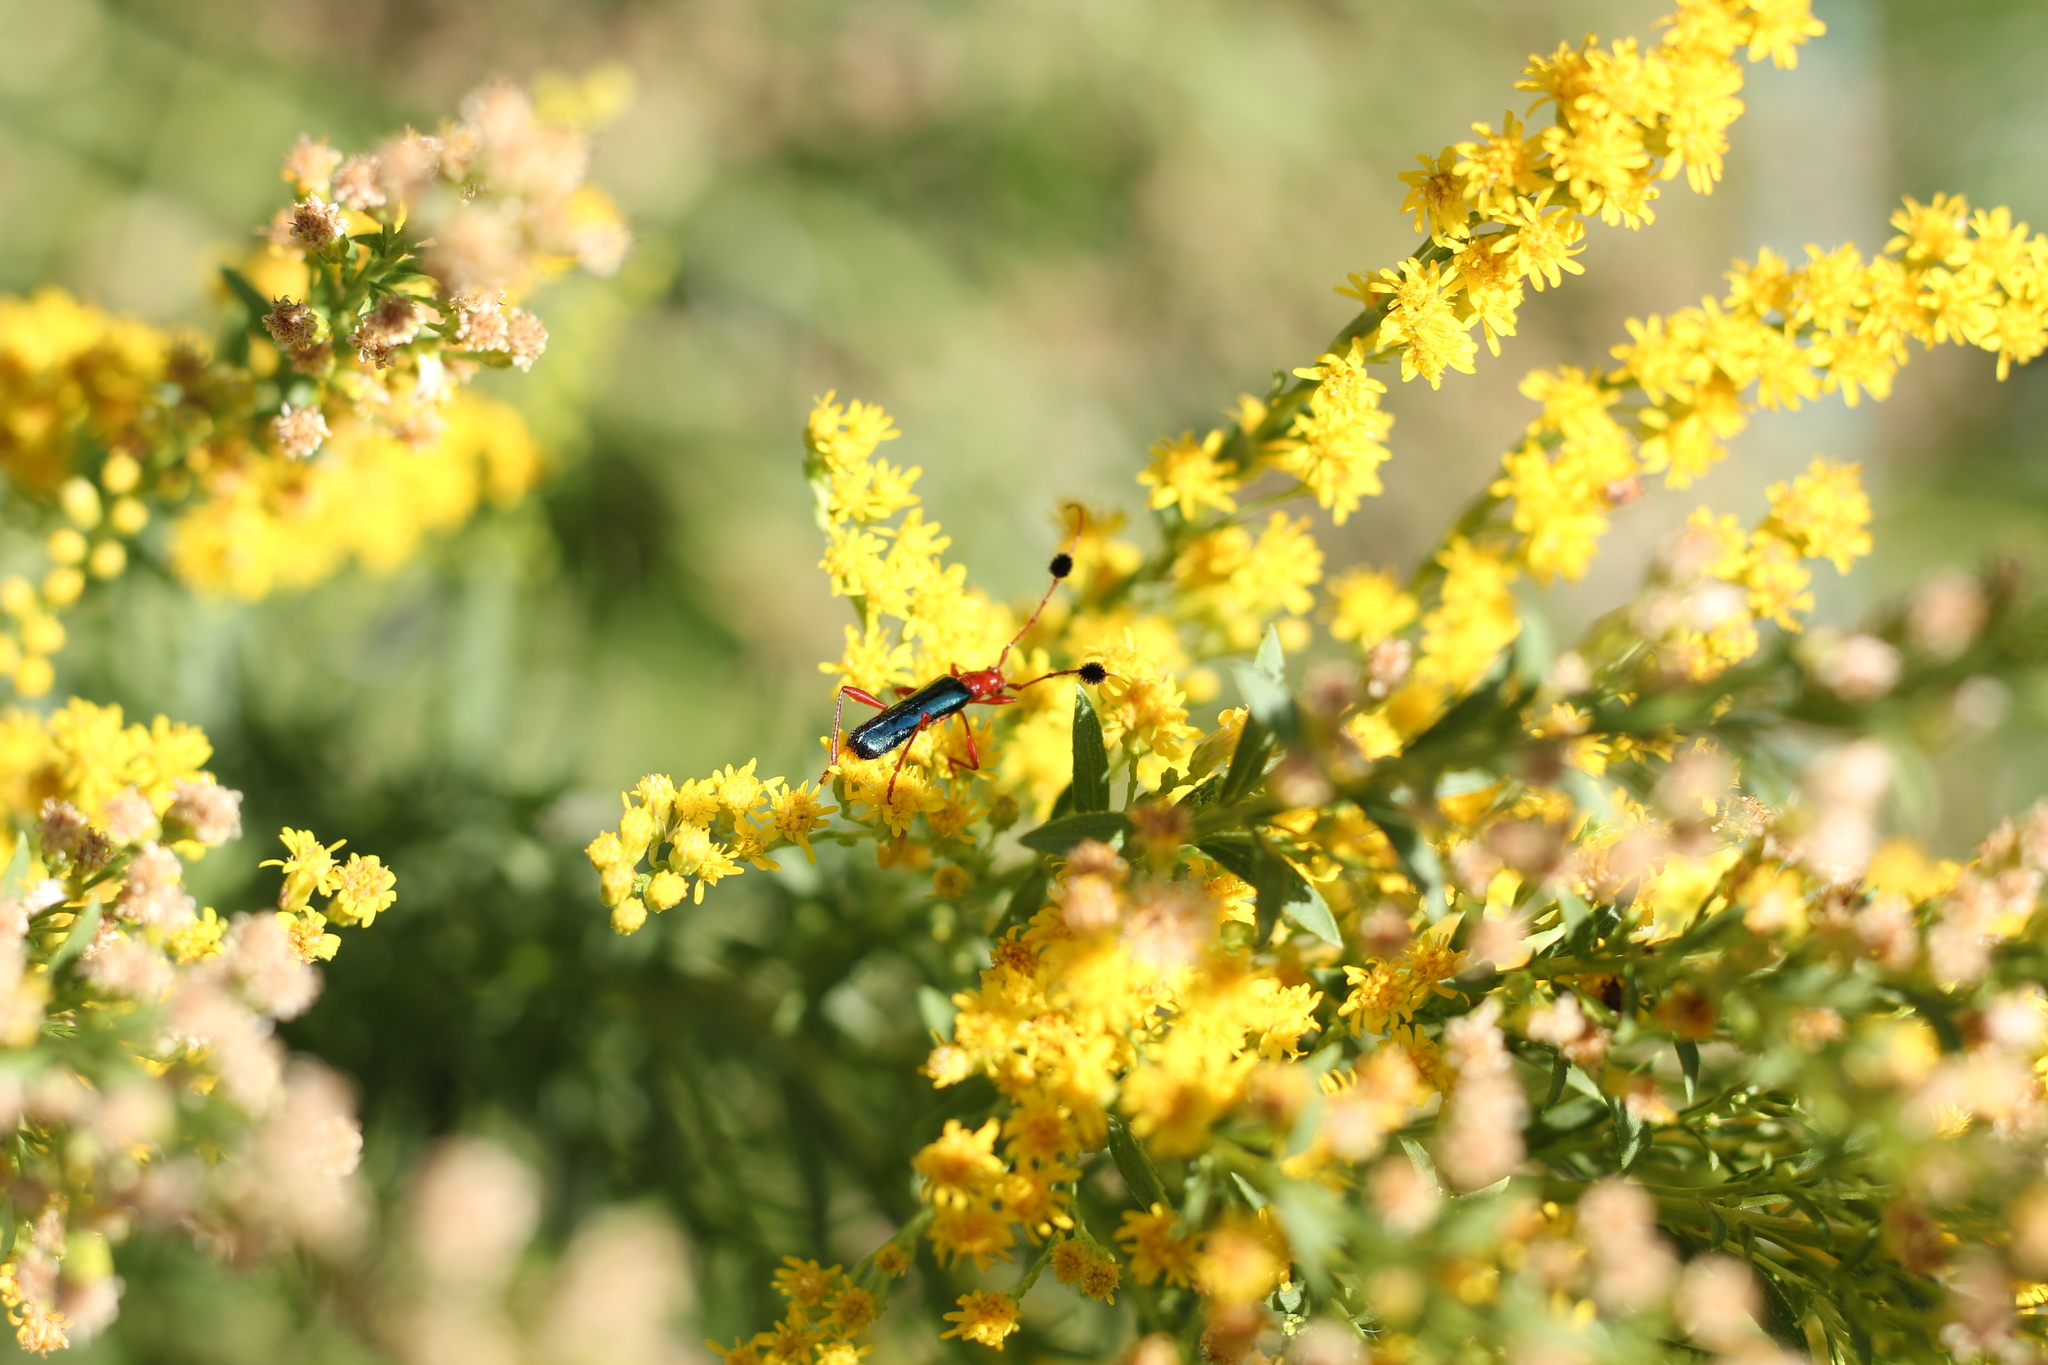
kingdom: Animalia
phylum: Arthropoda
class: Insecta
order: Coleoptera
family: Cerambycidae
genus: Paromoeocerus
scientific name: Paromoeocerus barbicornis
